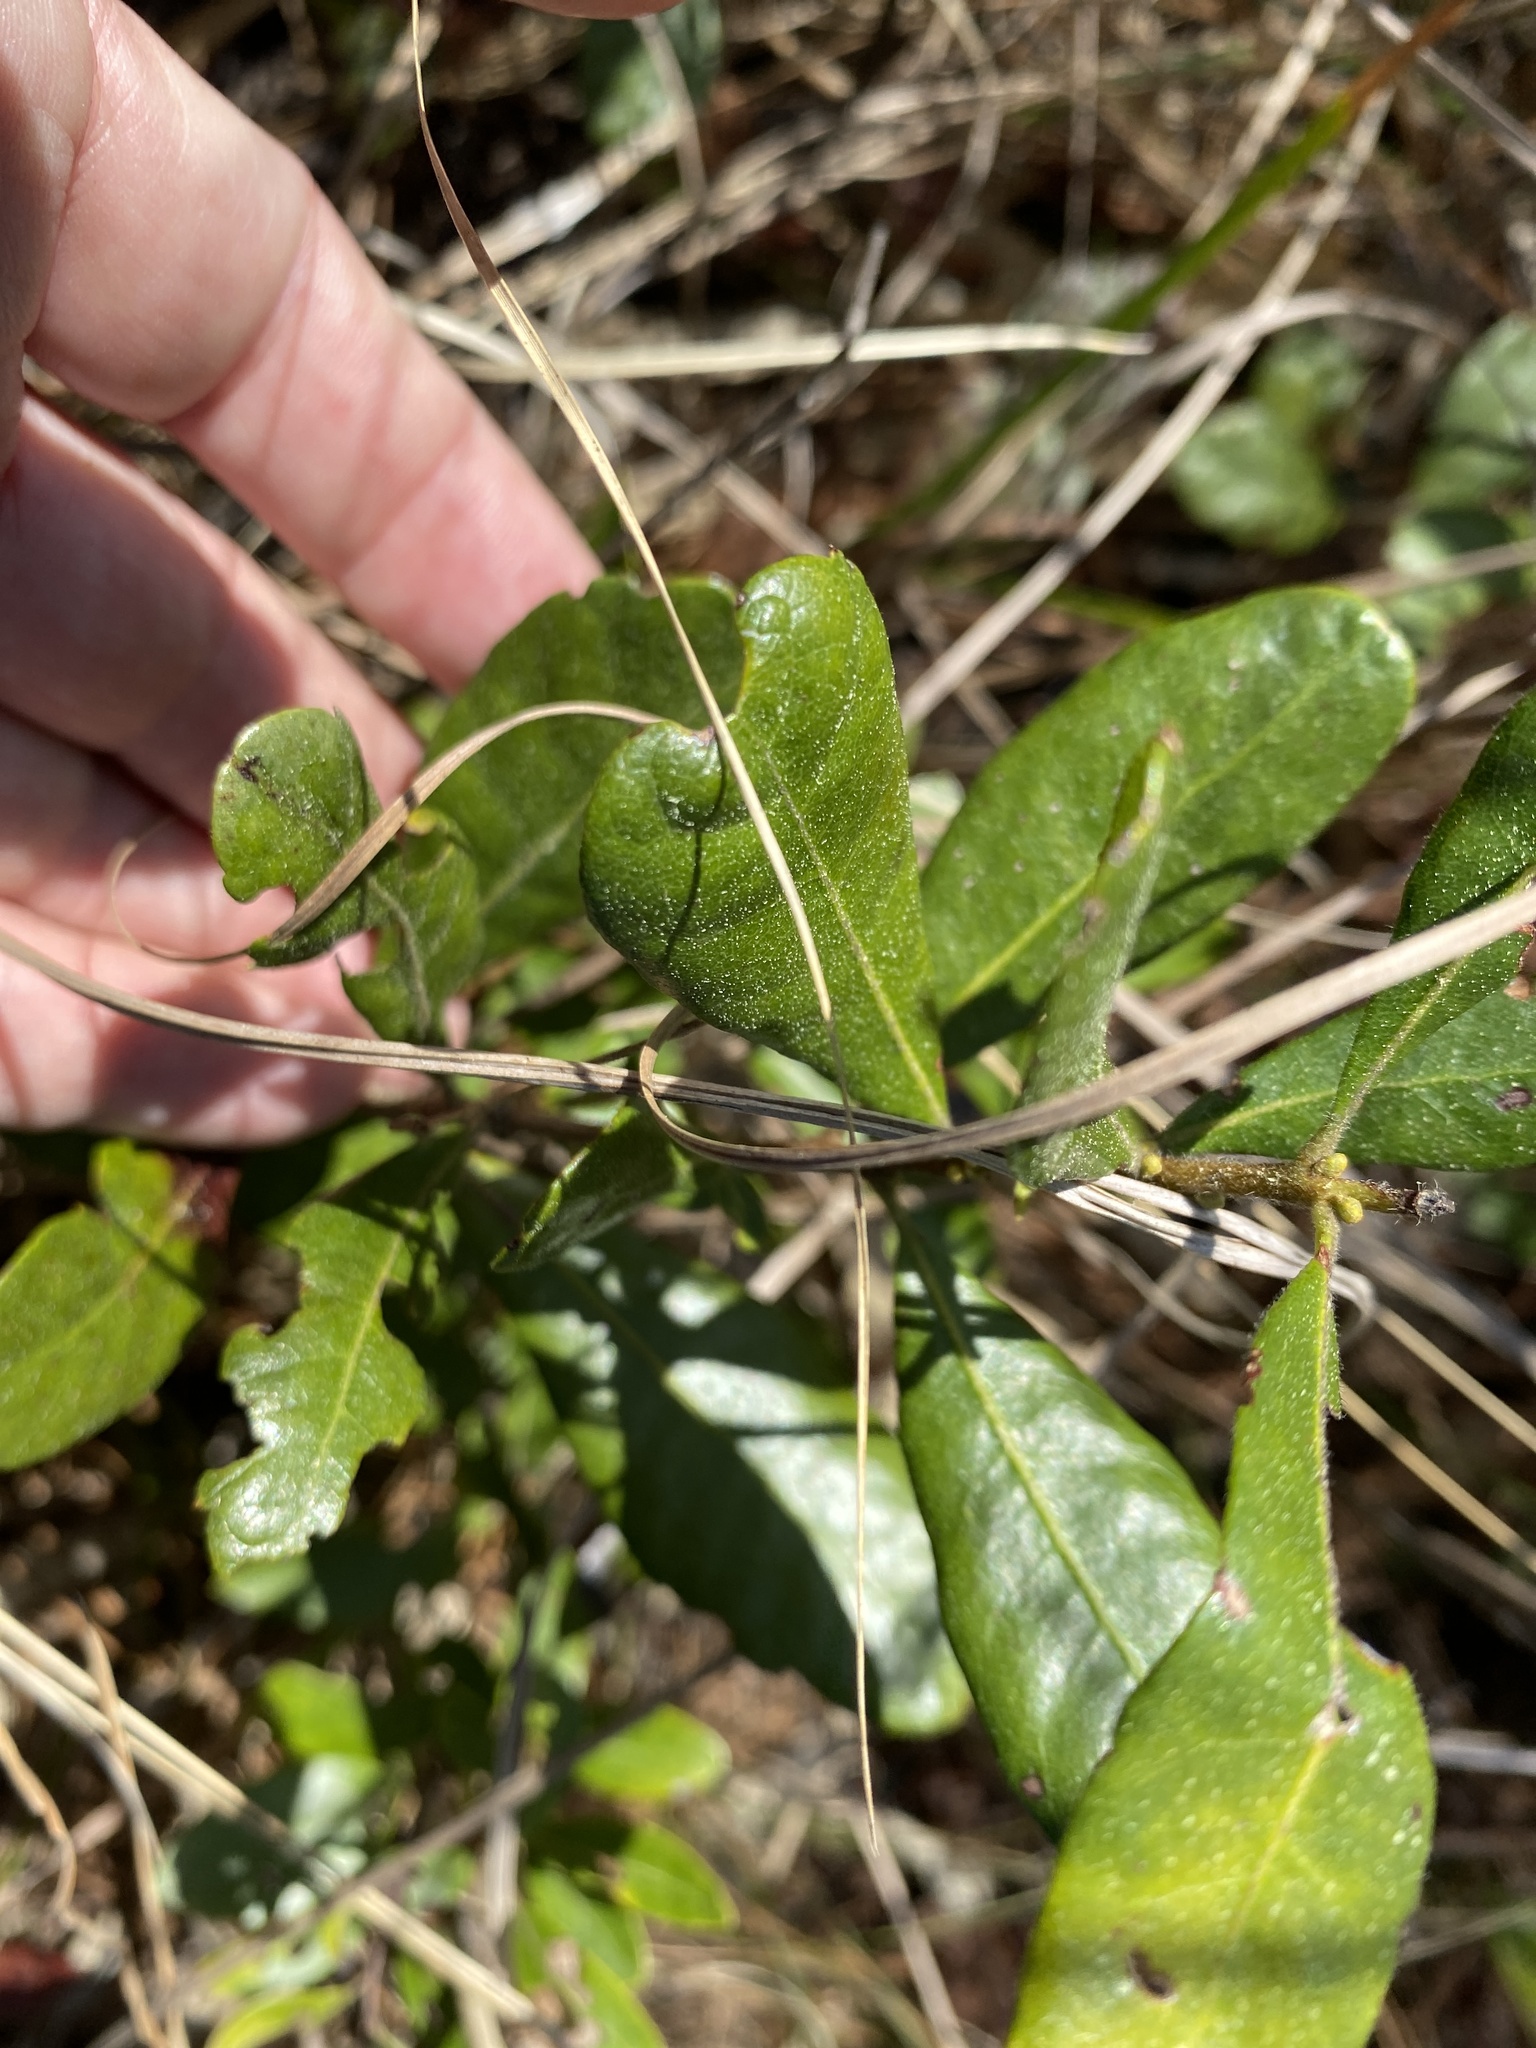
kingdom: Plantae
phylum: Tracheophyta
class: Magnoliopsida
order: Fagales
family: Myricaceae
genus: Morella
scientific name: Morella caroliniensis
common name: Evergreen bayberry
